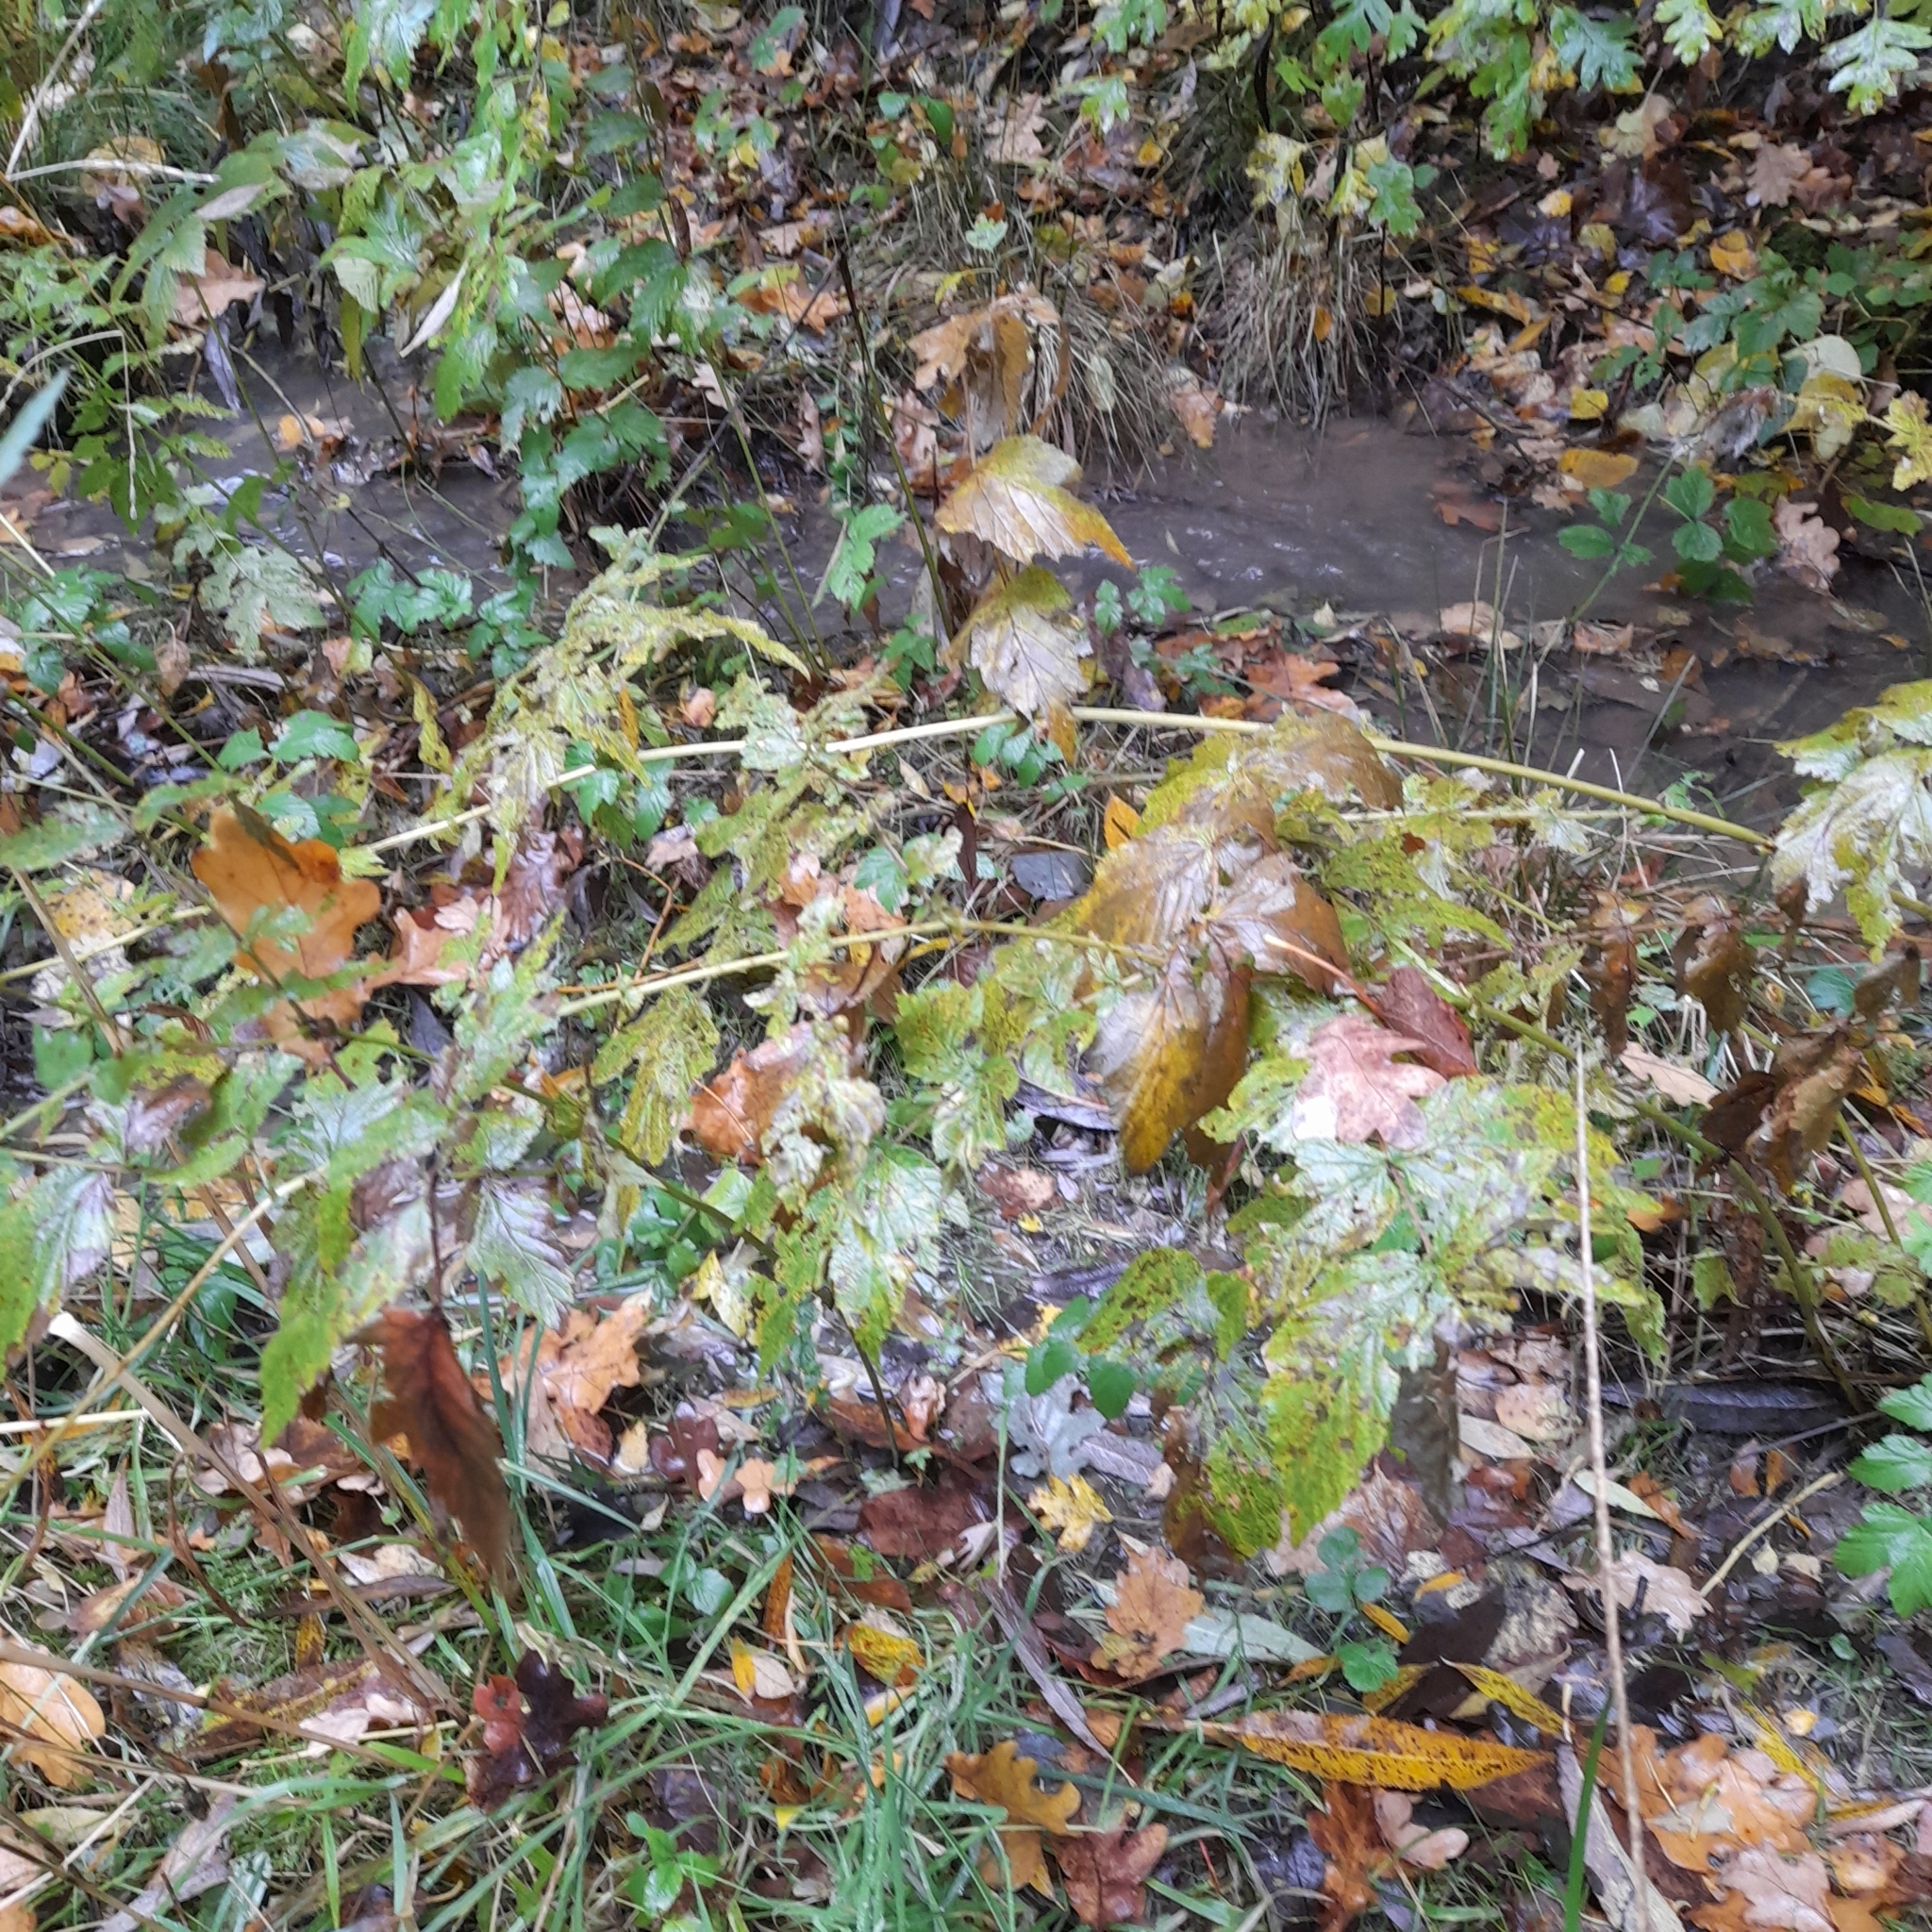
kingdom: Plantae
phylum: Tracheophyta
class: Magnoliopsida
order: Rosales
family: Rosaceae
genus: Filipendula
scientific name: Filipendula ulmaria
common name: Meadowsweet
